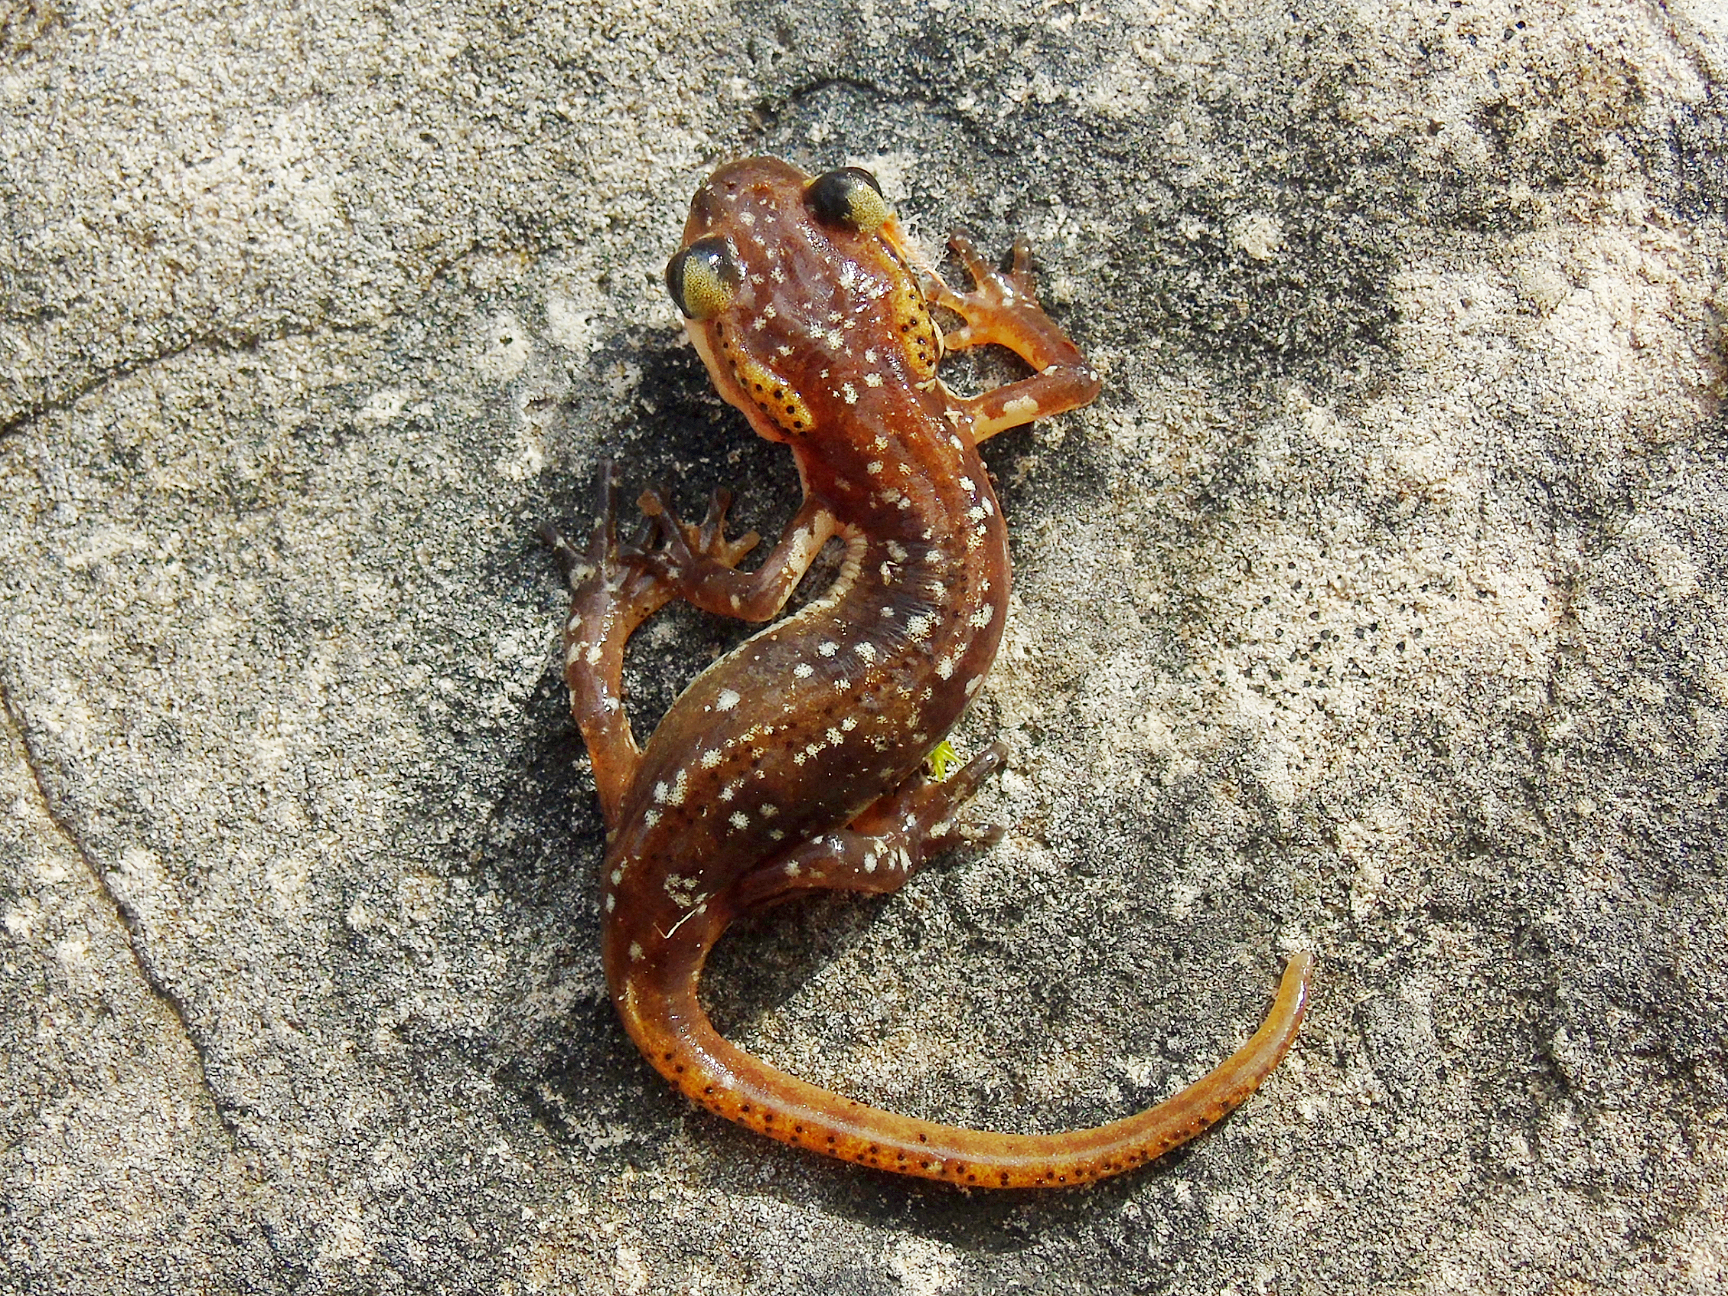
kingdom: Animalia
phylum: Chordata
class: Amphibia
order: Caudata
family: Salamandridae
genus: Lyciasalamandra
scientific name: Lyciasalamandra
